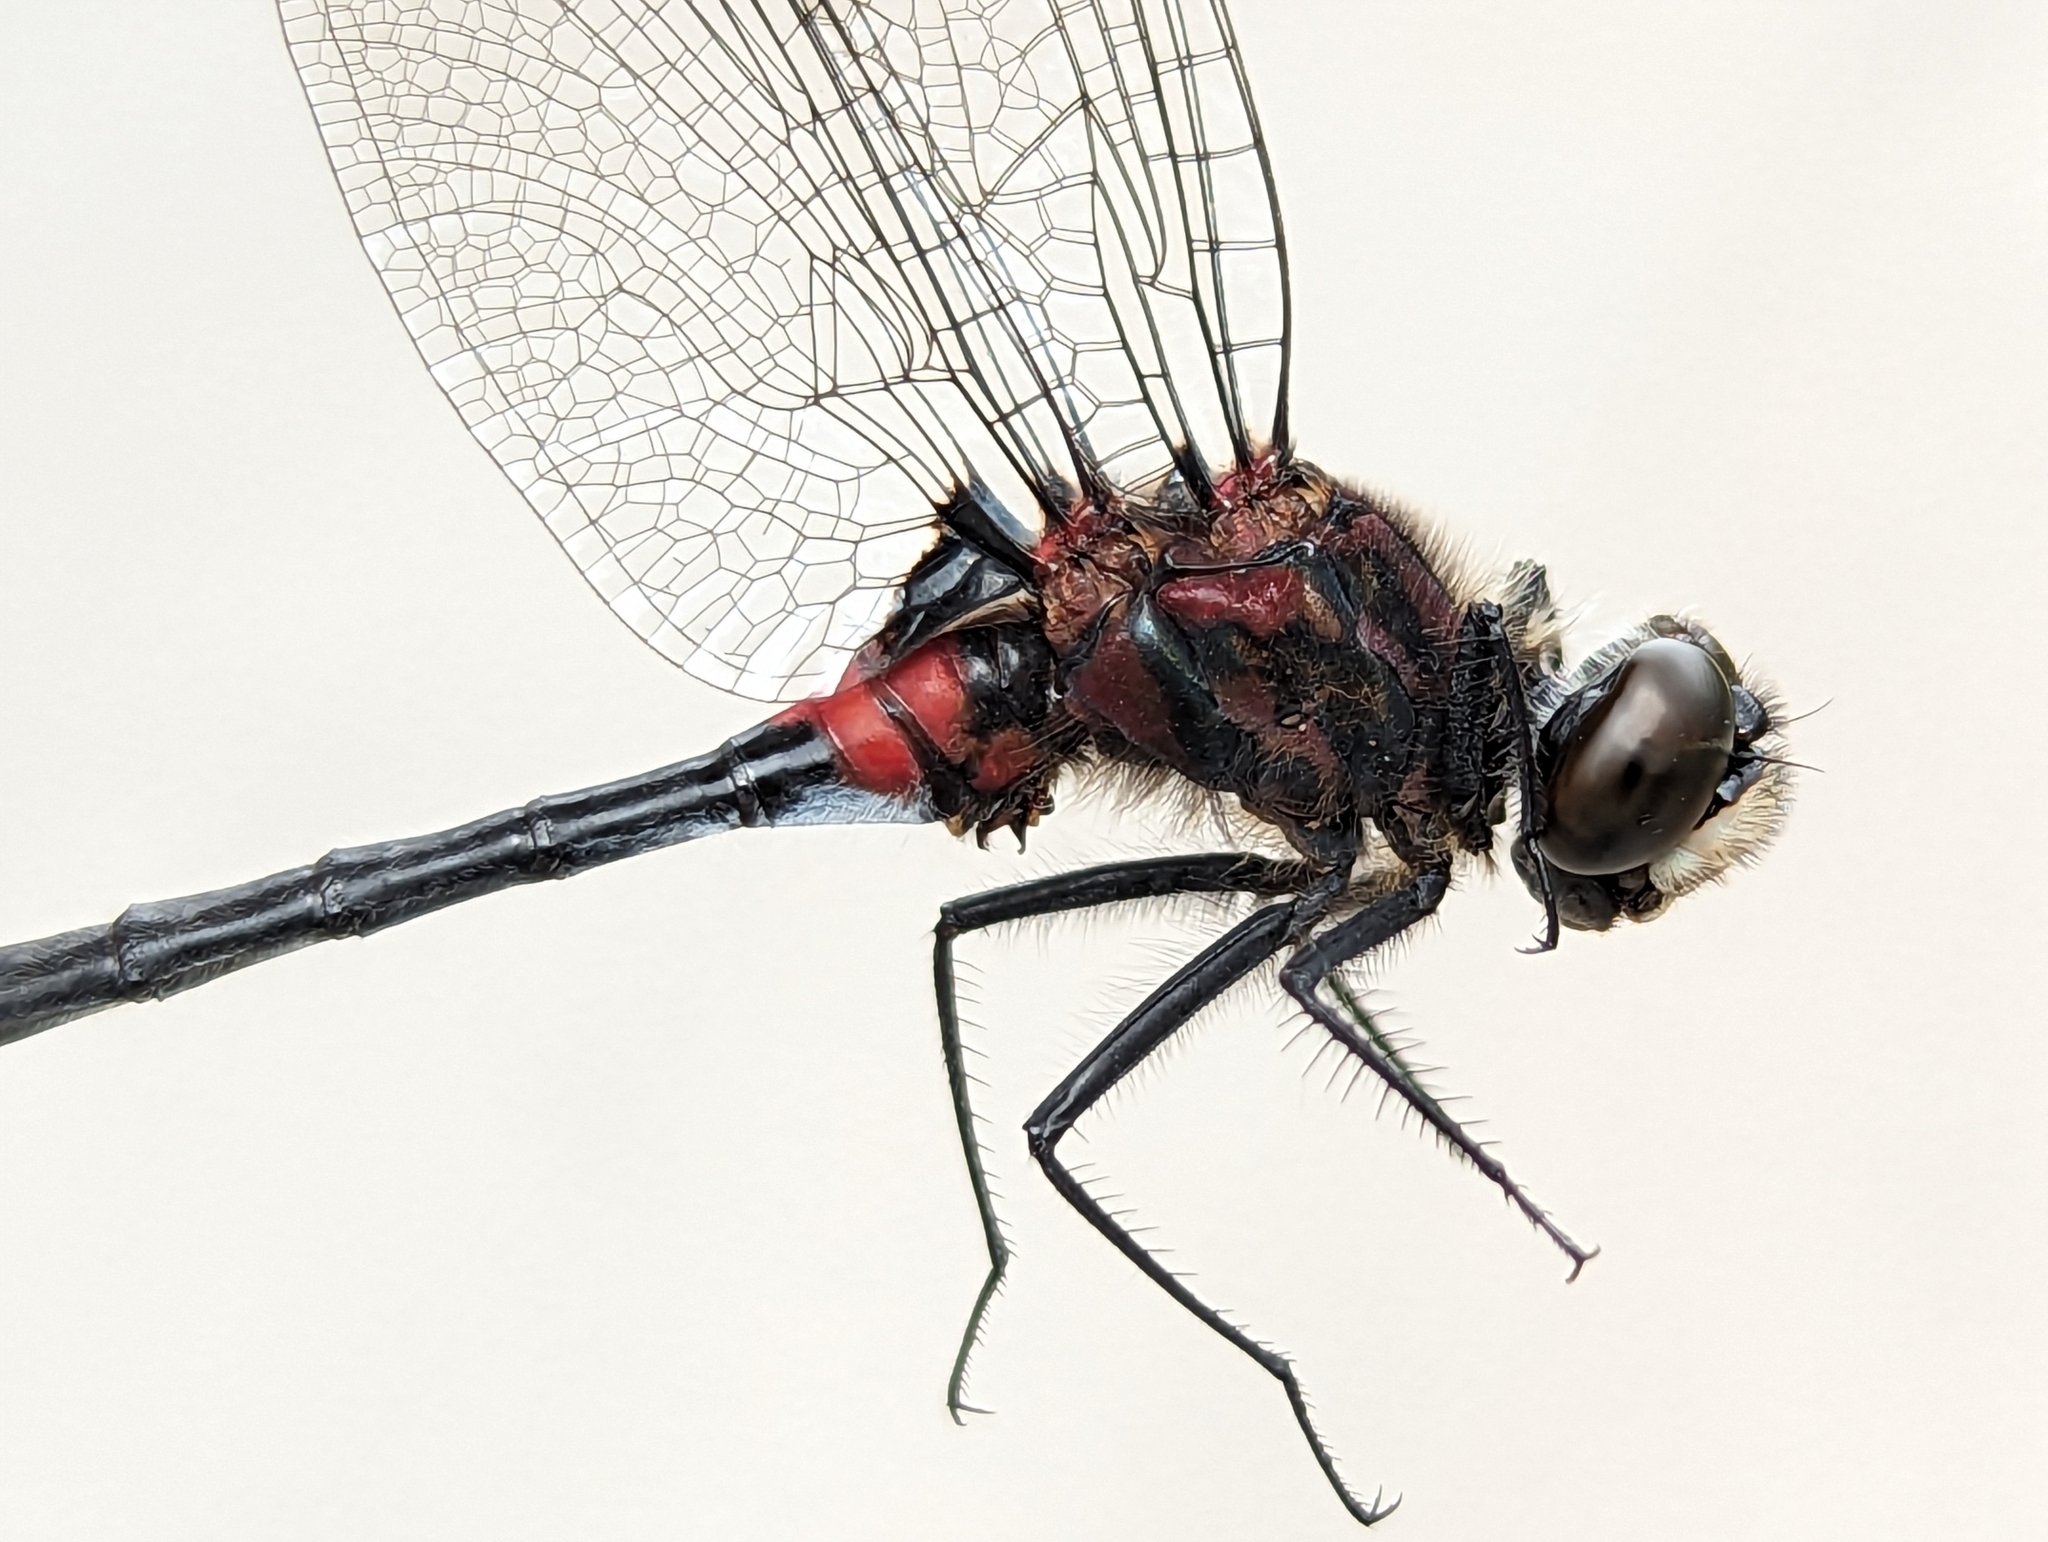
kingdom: Animalia
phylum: Arthropoda
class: Insecta
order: Odonata
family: Libellulidae
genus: Leucorrhinia
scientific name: Leucorrhinia glacialis
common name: Crimson-ringed whiteface
